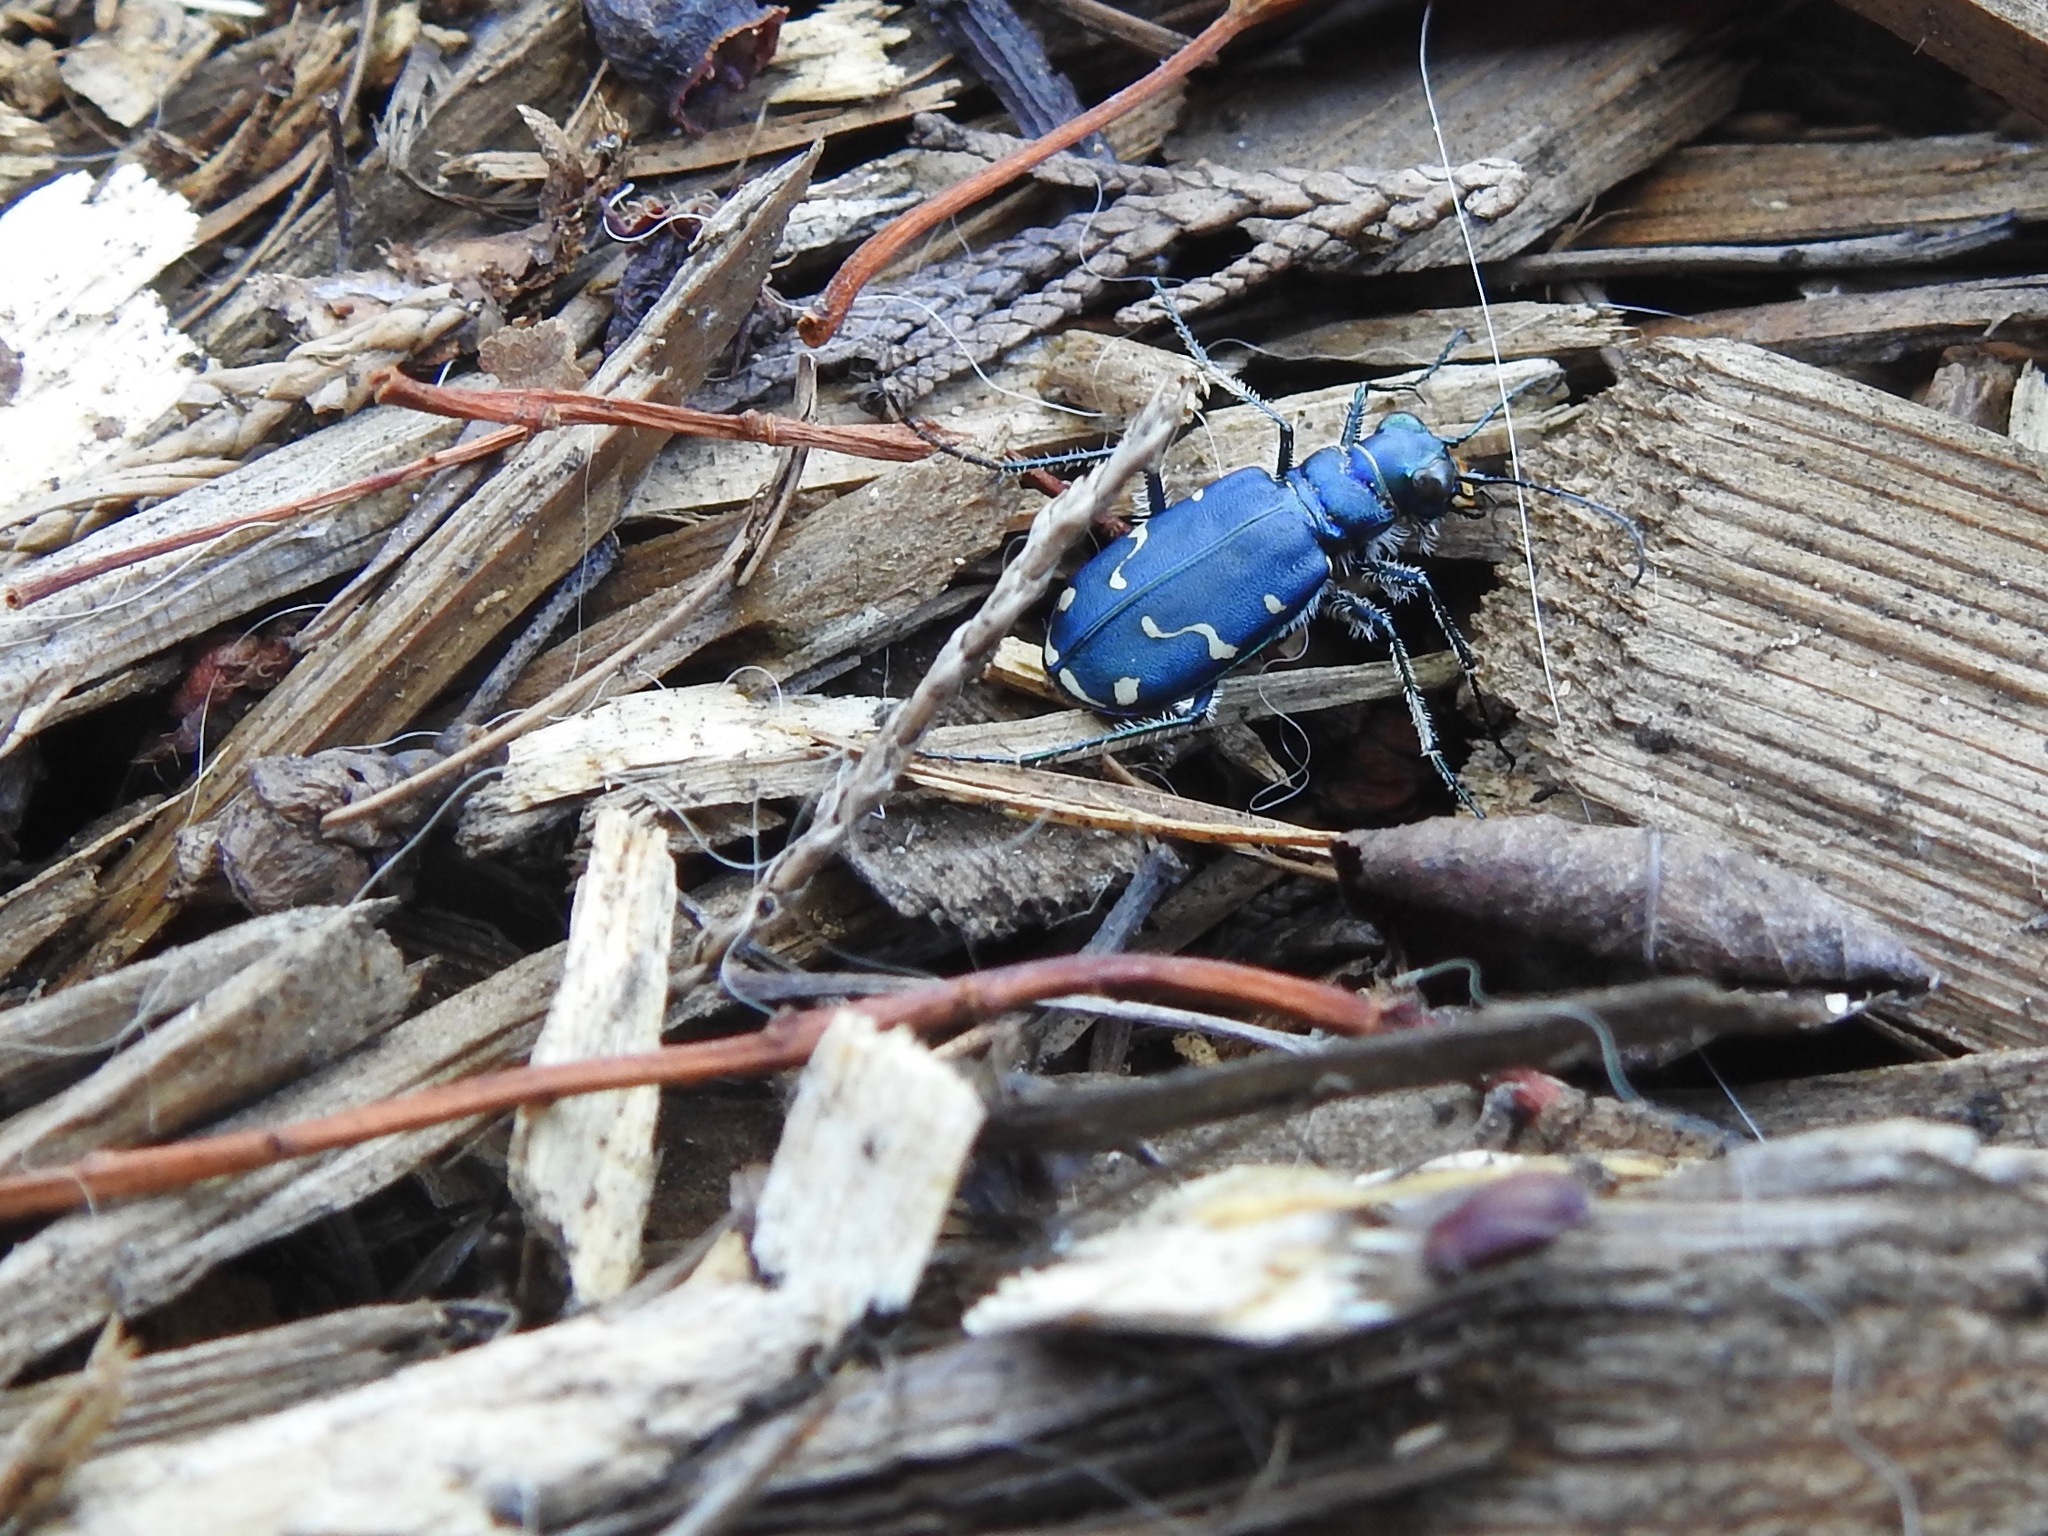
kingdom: Animalia
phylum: Arthropoda
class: Insecta
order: Coleoptera
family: Carabidae
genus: Cicindela
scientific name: Cicindela depressula
